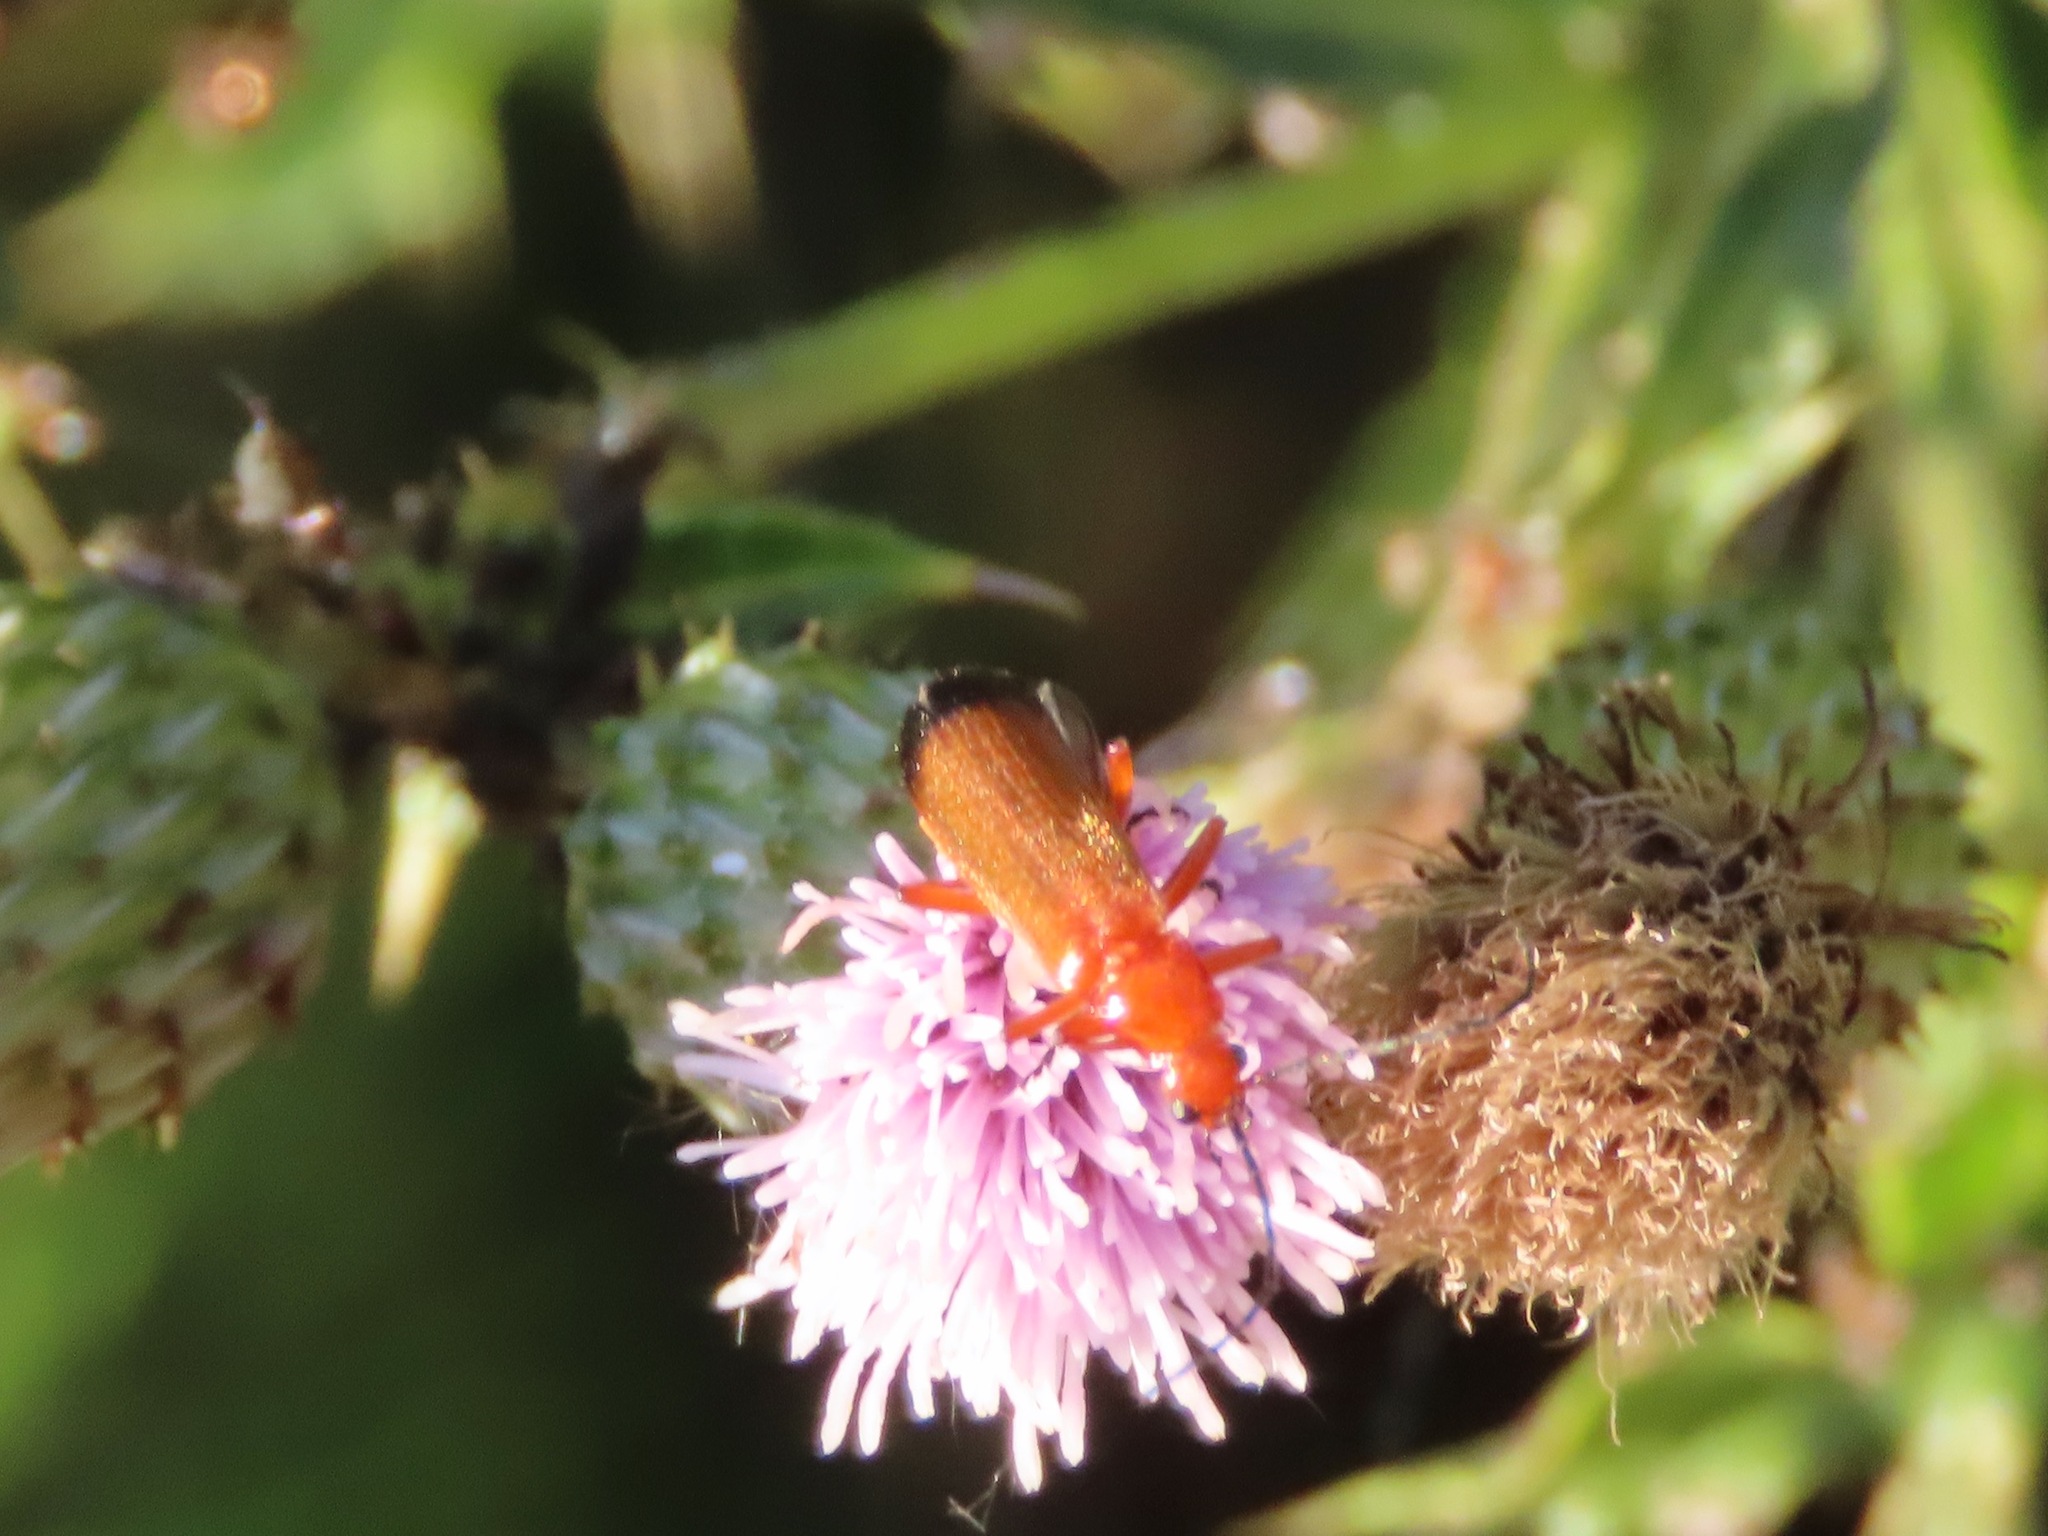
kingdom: Animalia
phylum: Arthropoda
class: Insecta
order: Coleoptera
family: Cantharidae
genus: Rhagonycha
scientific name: Rhagonycha fulva
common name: Common red soldier beetle
